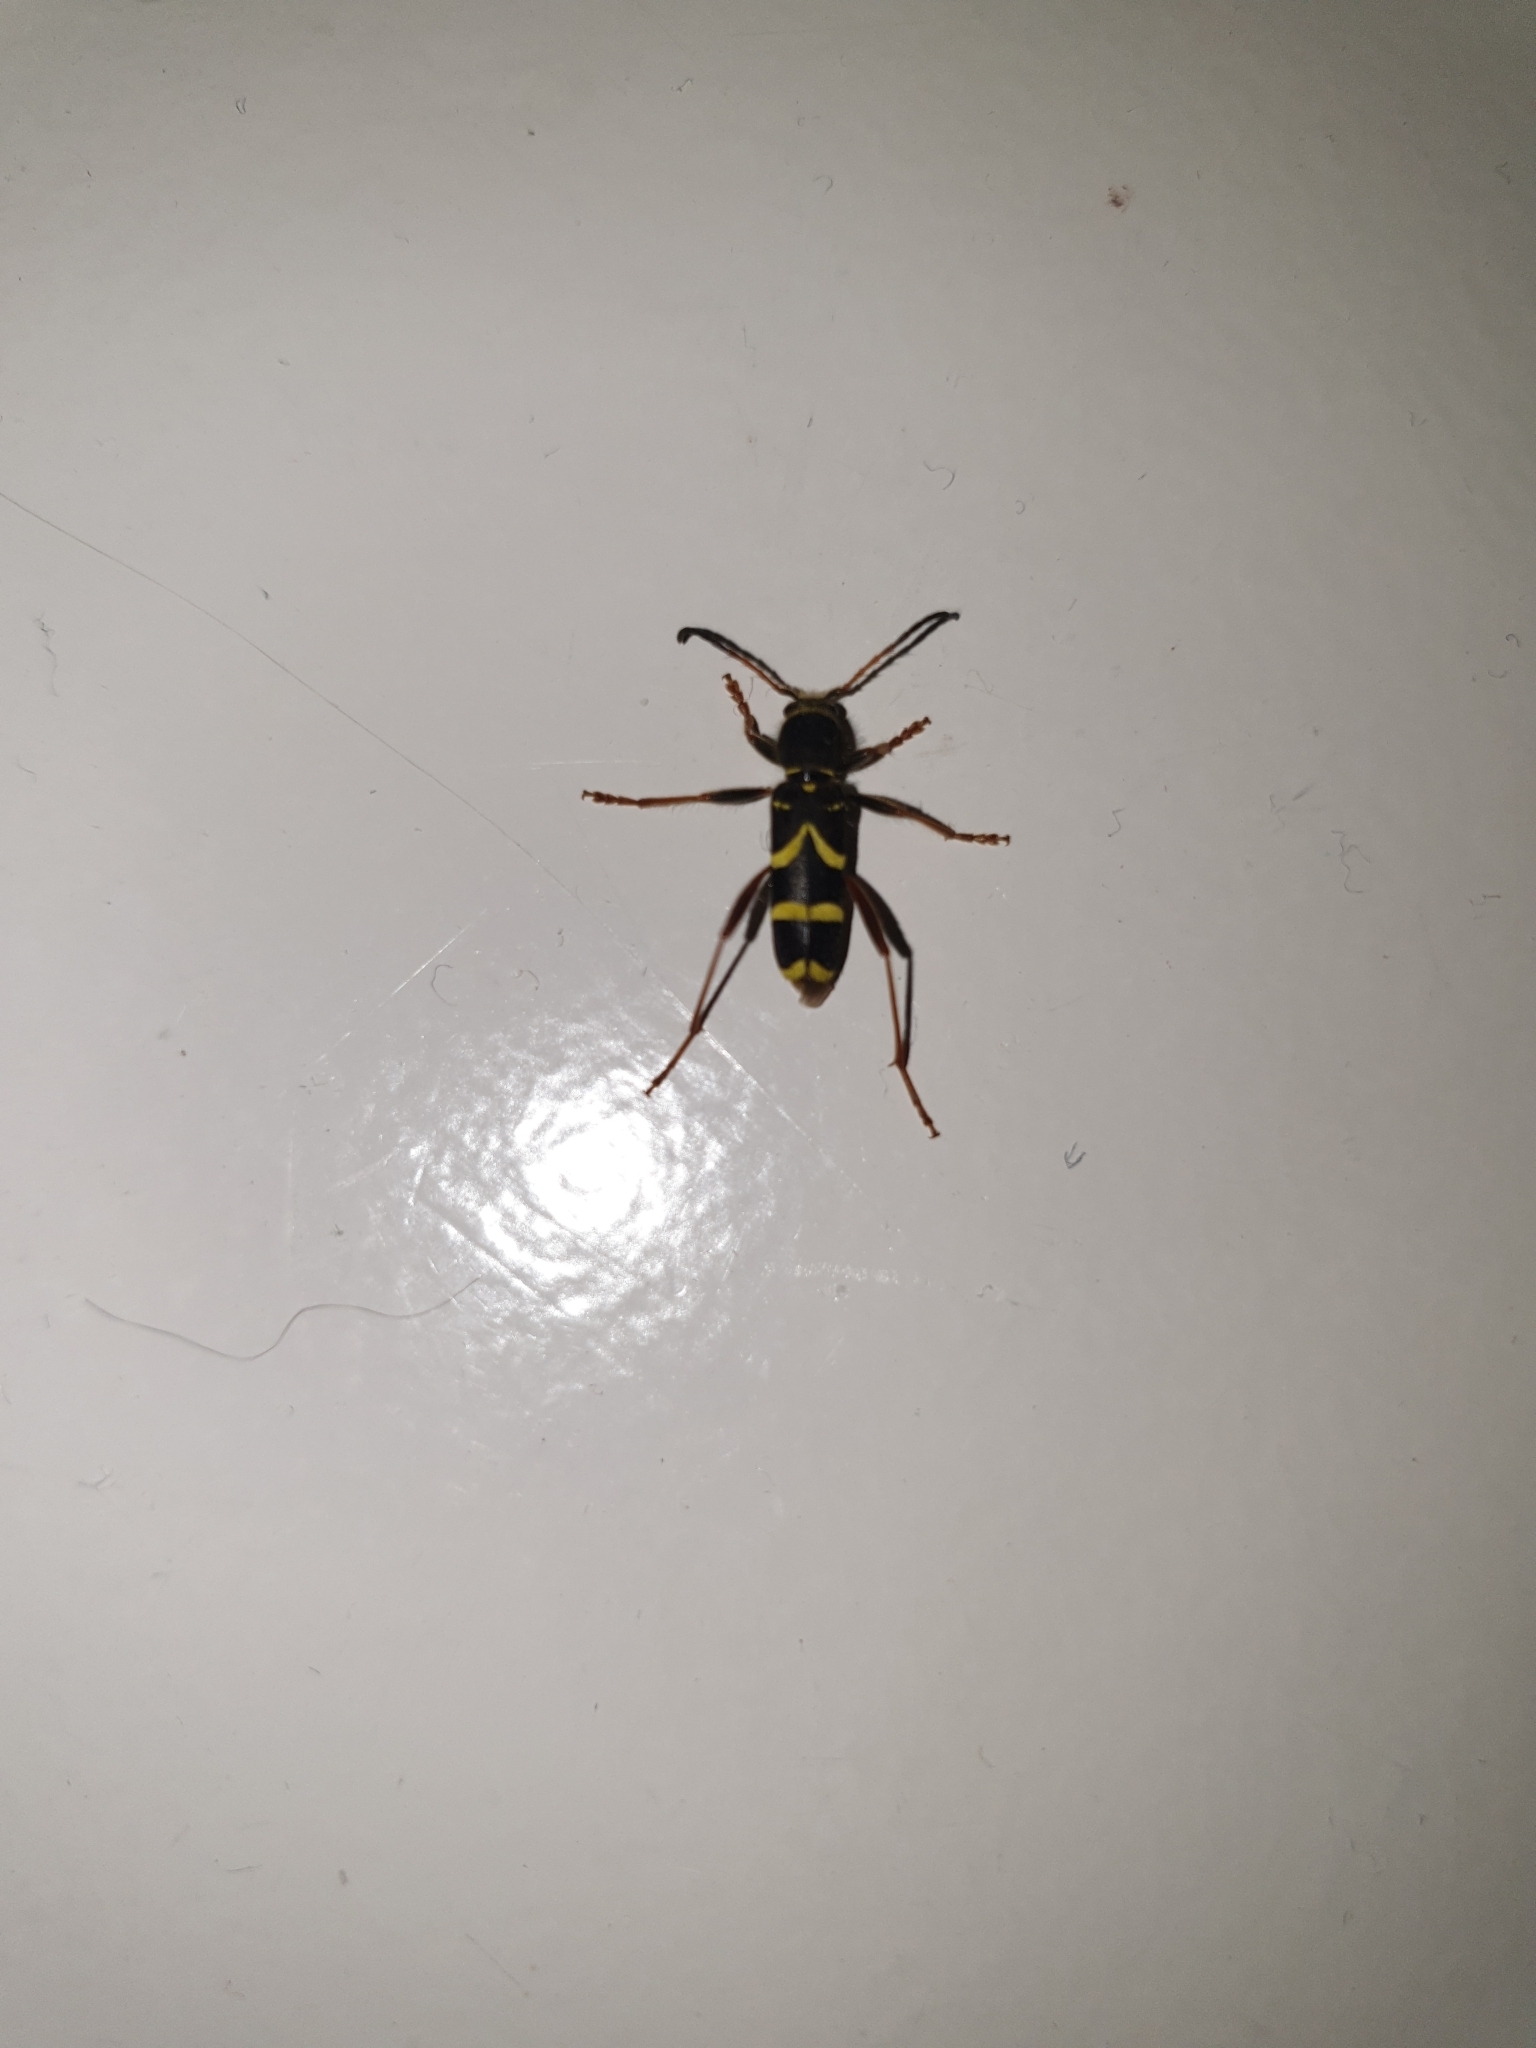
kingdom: Animalia
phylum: Arthropoda
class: Insecta
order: Coleoptera
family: Cerambycidae
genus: Clytus
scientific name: Clytus arietis
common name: Wasp beetle
